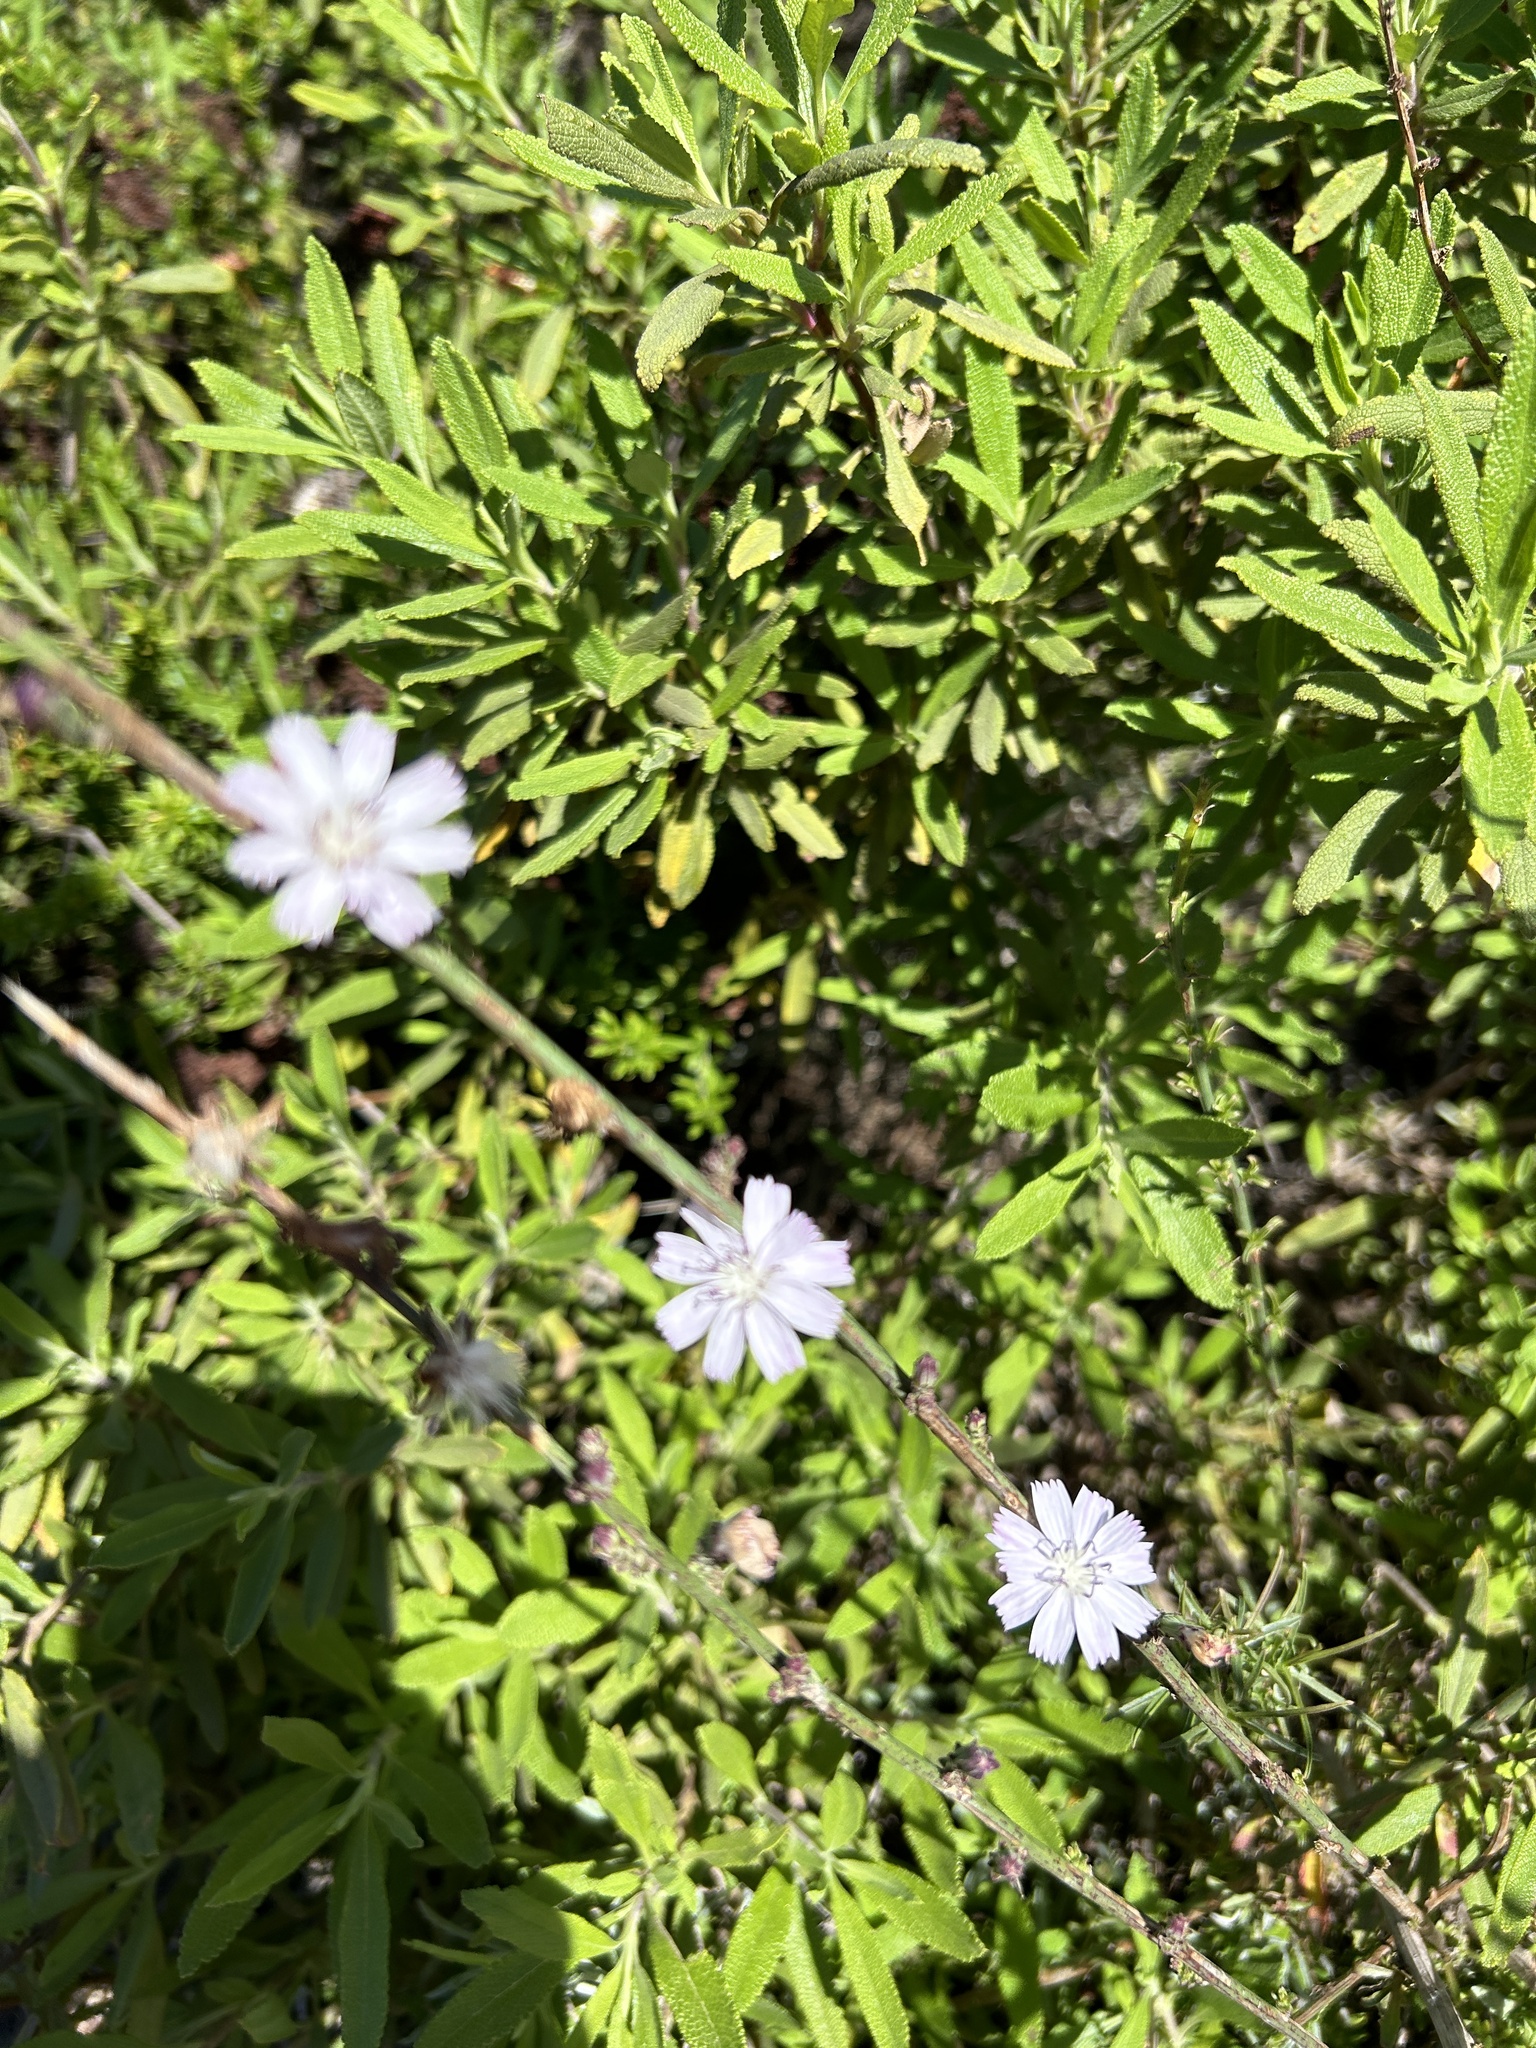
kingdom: Plantae
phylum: Tracheophyta
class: Magnoliopsida
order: Asterales
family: Asteraceae
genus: Stephanomeria
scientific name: Stephanomeria diegensis
